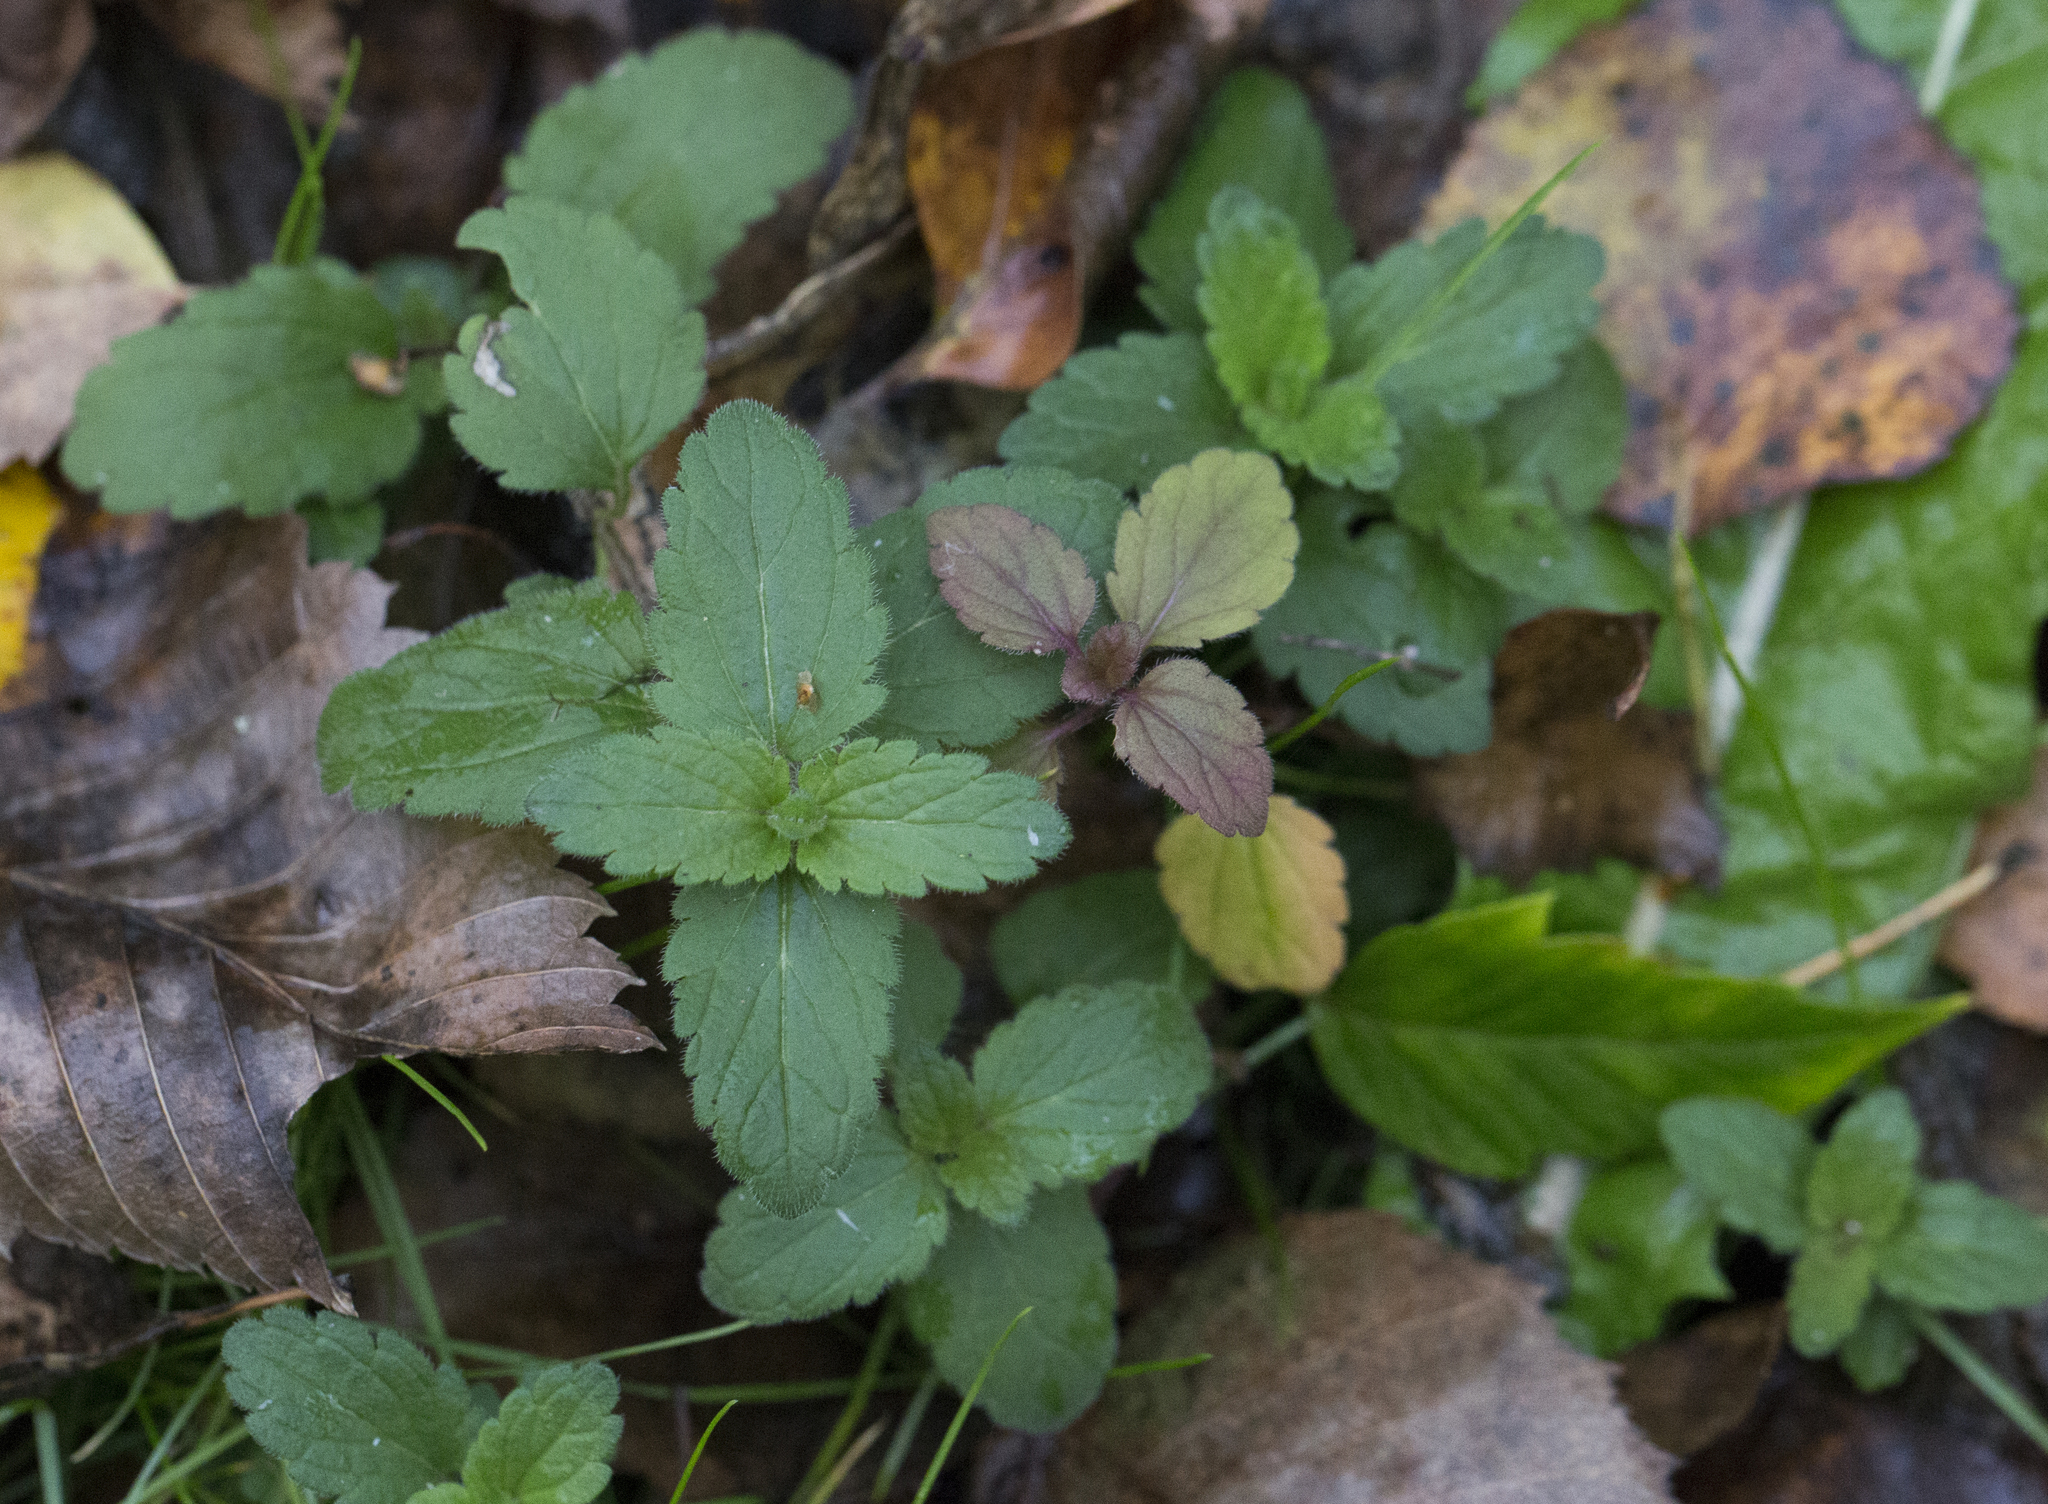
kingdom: Plantae
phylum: Tracheophyta
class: Magnoliopsida
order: Lamiales
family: Plantaginaceae
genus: Veronica
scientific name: Veronica chamaedrys
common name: Germander speedwell
